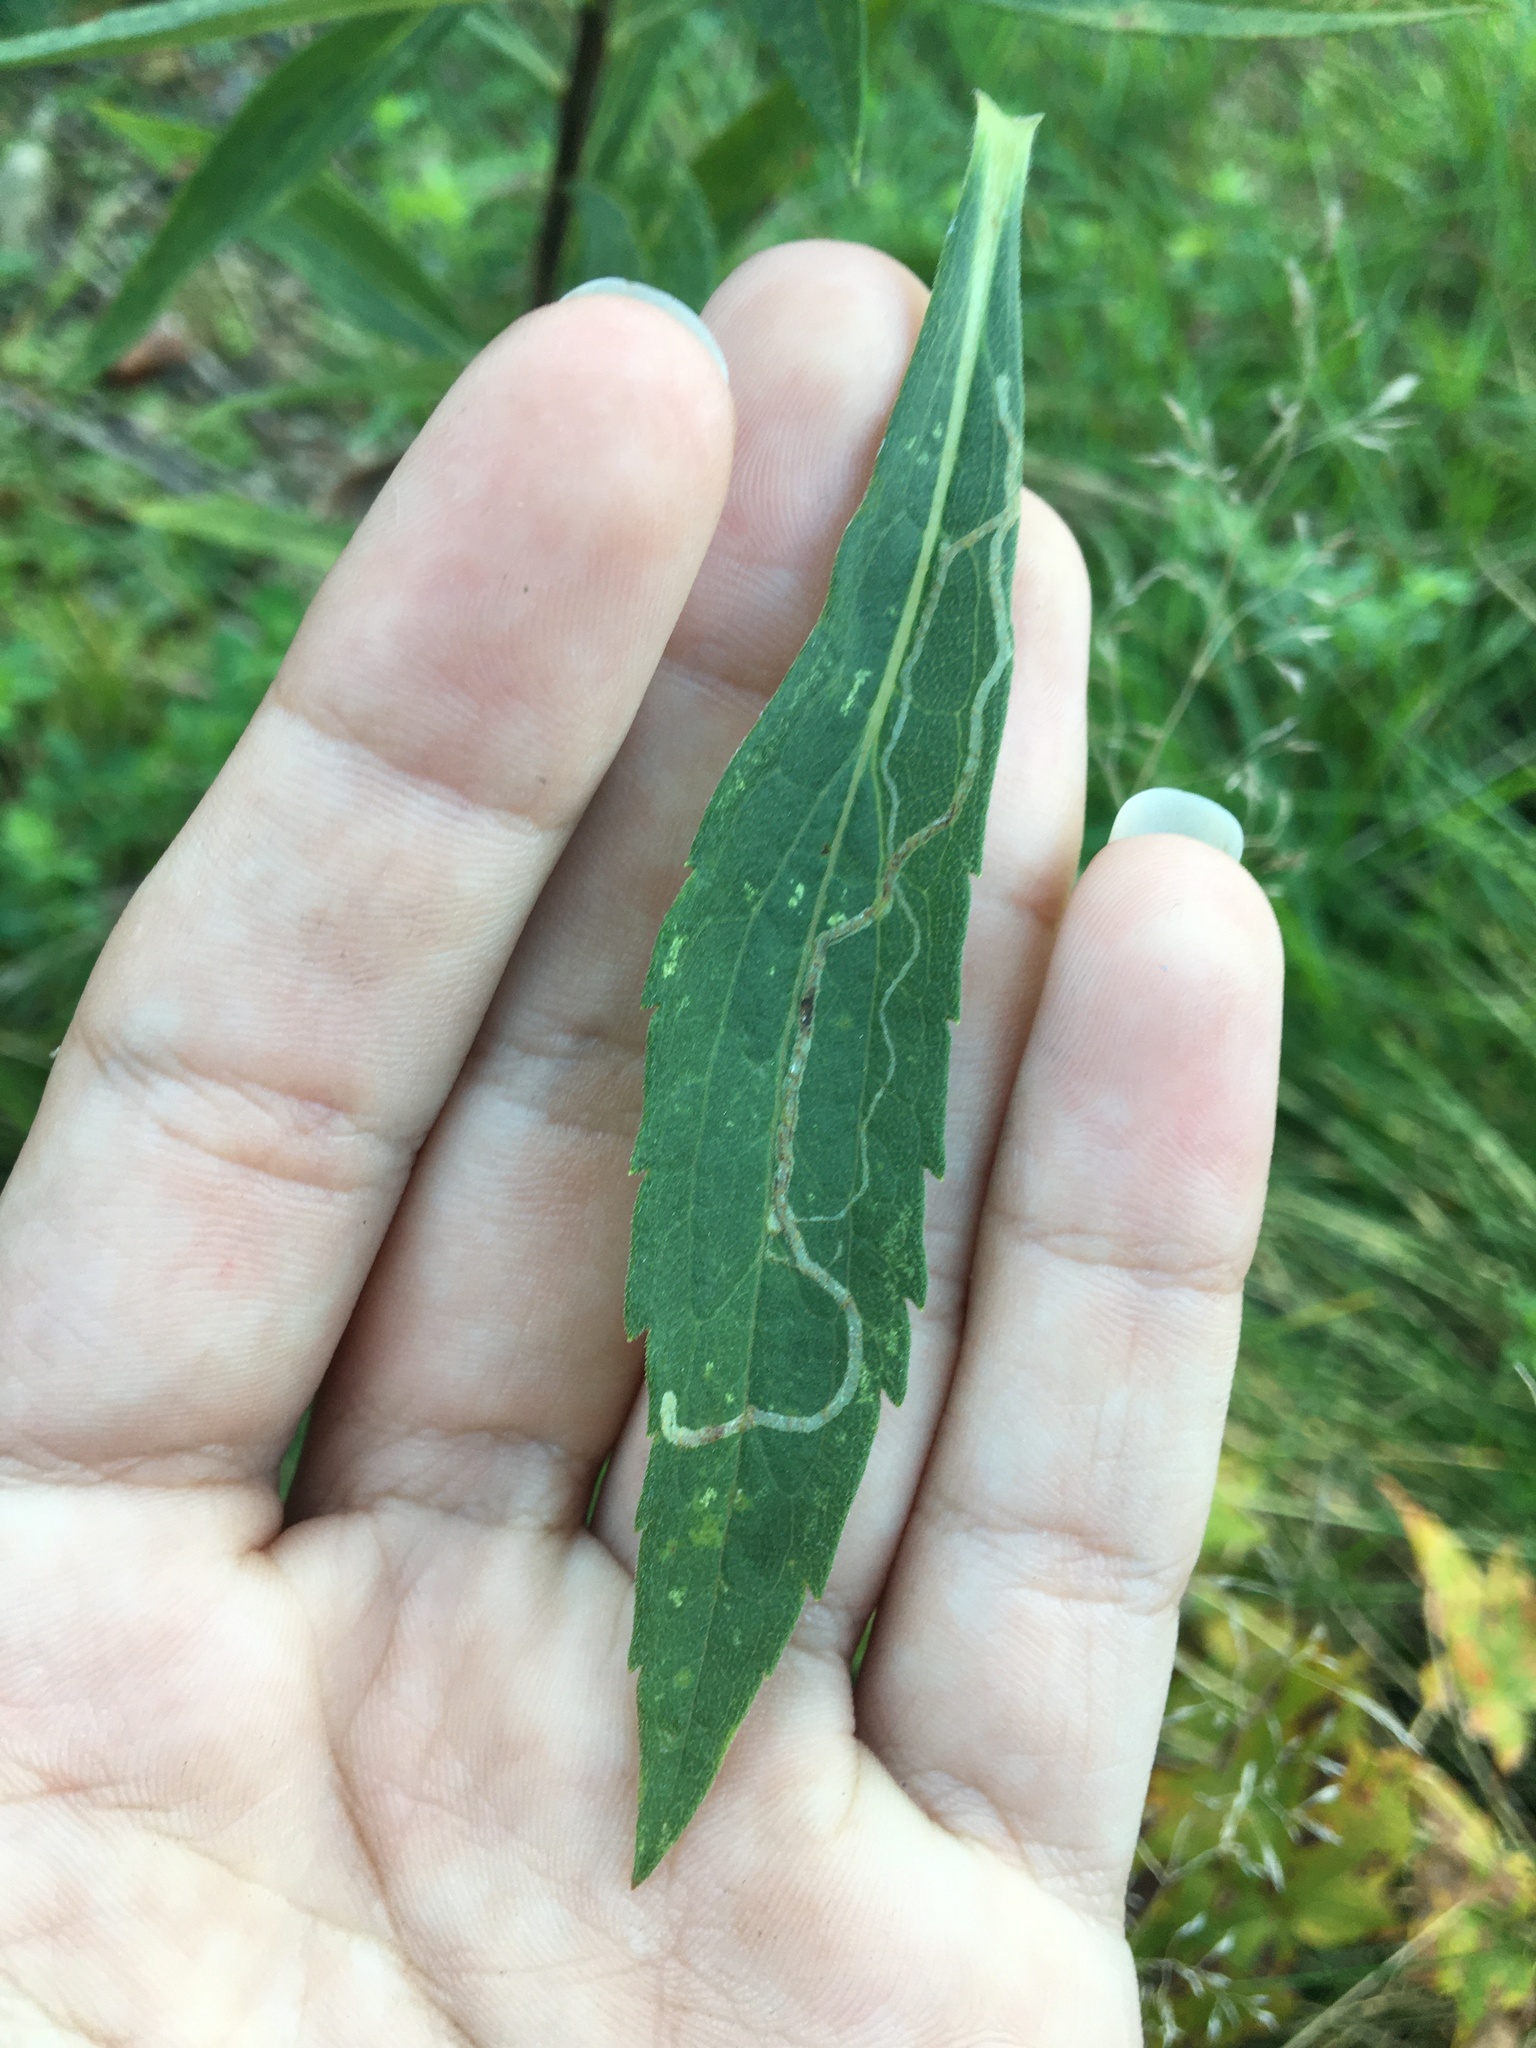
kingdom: Animalia
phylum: Arthropoda
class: Insecta
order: Diptera
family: Agromyzidae
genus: Ophiomyia
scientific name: Ophiomyia maura
